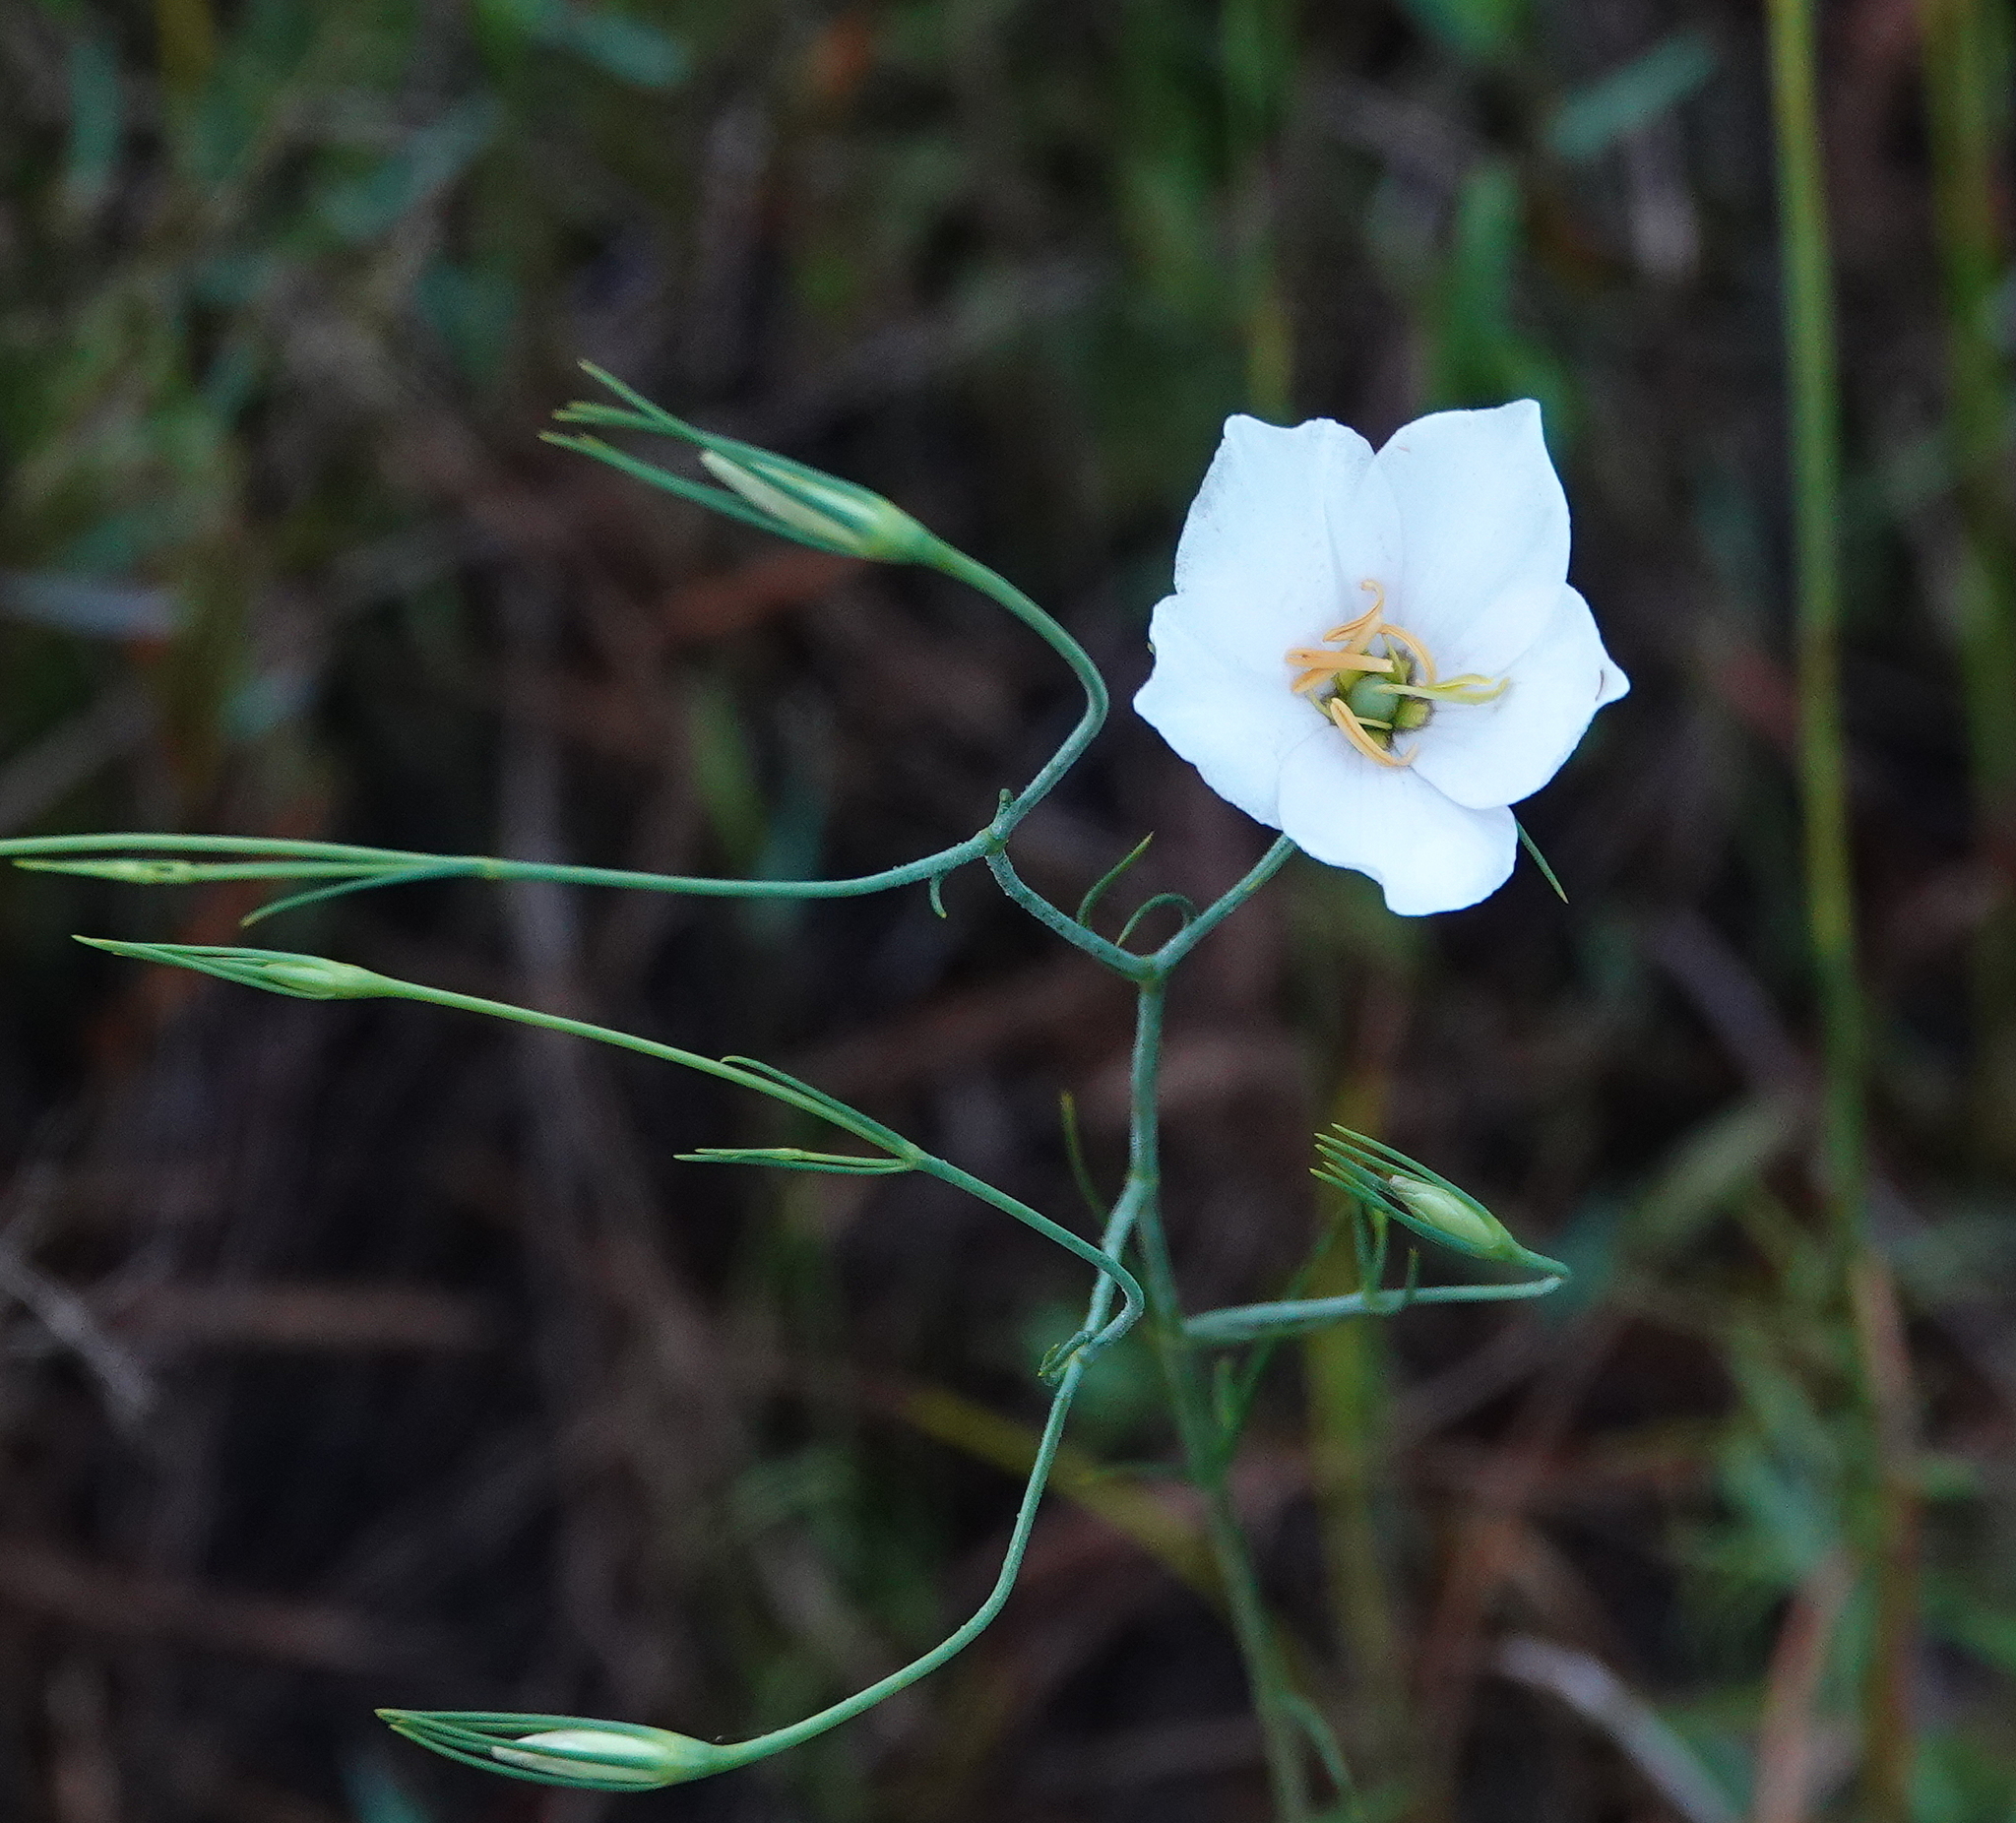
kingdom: Plantae
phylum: Tracheophyta
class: Magnoliopsida
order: Gentianales
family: Gentianaceae
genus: Sabatia
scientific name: Sabatia grandiflora
